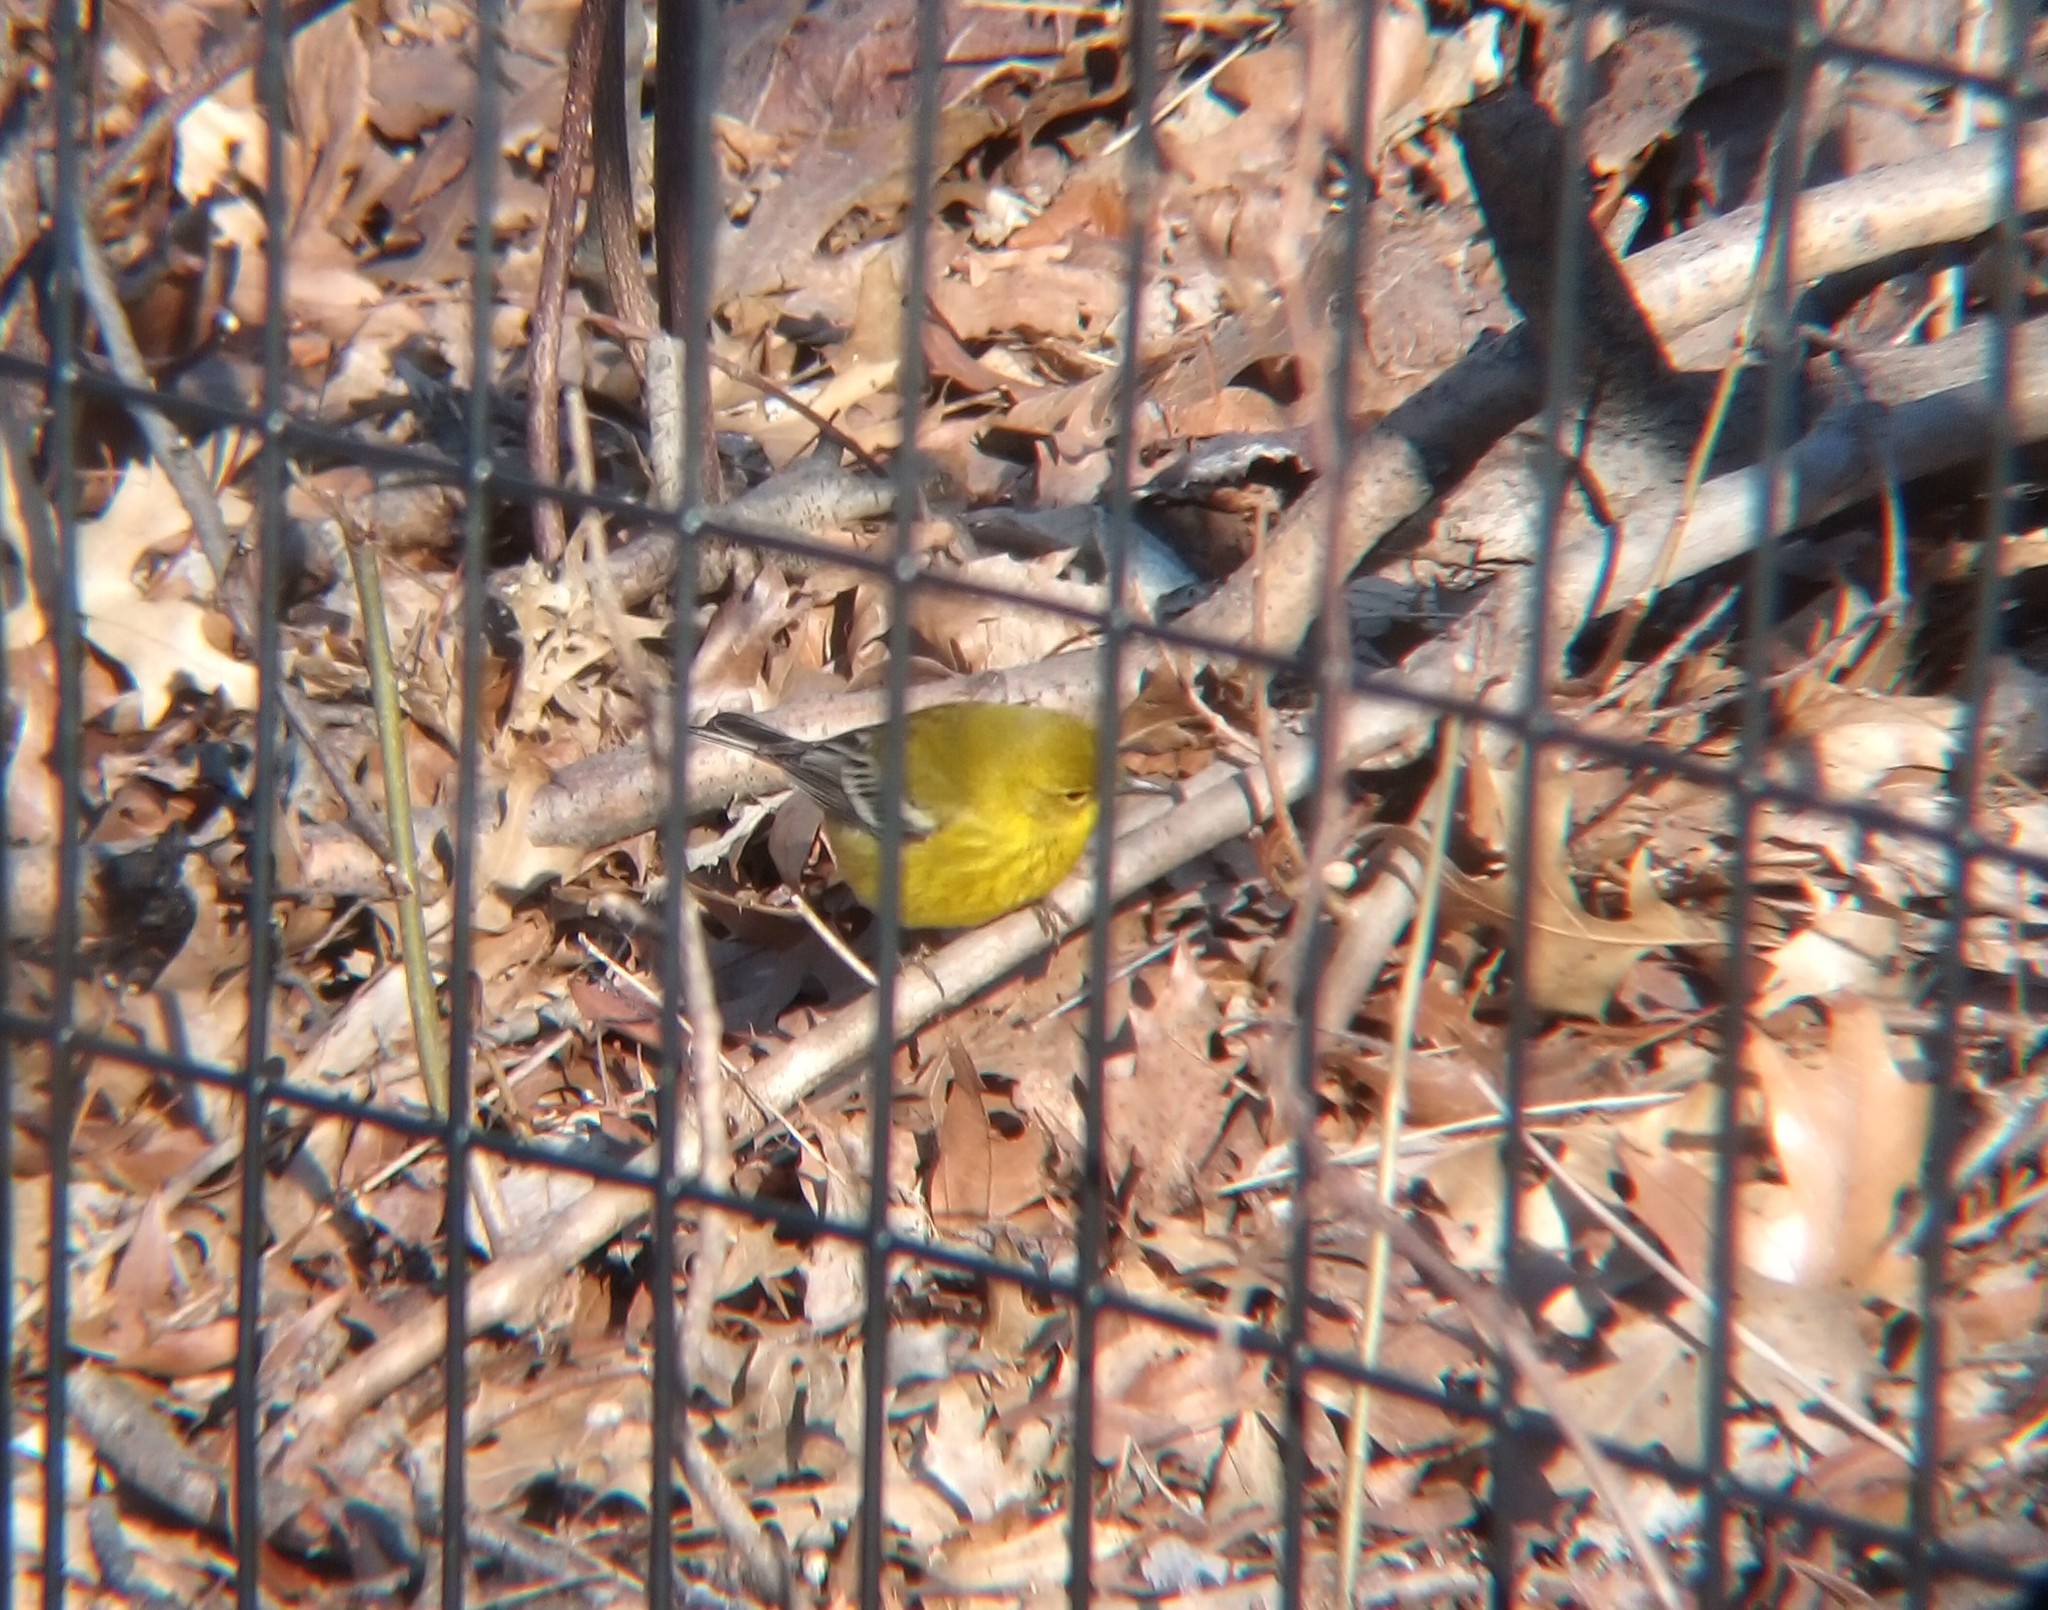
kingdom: Animalia
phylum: Chordata
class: Aves
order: Passeriformes
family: Parulidae
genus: Setophaga
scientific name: Setophaga pinus
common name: Pine warbler
